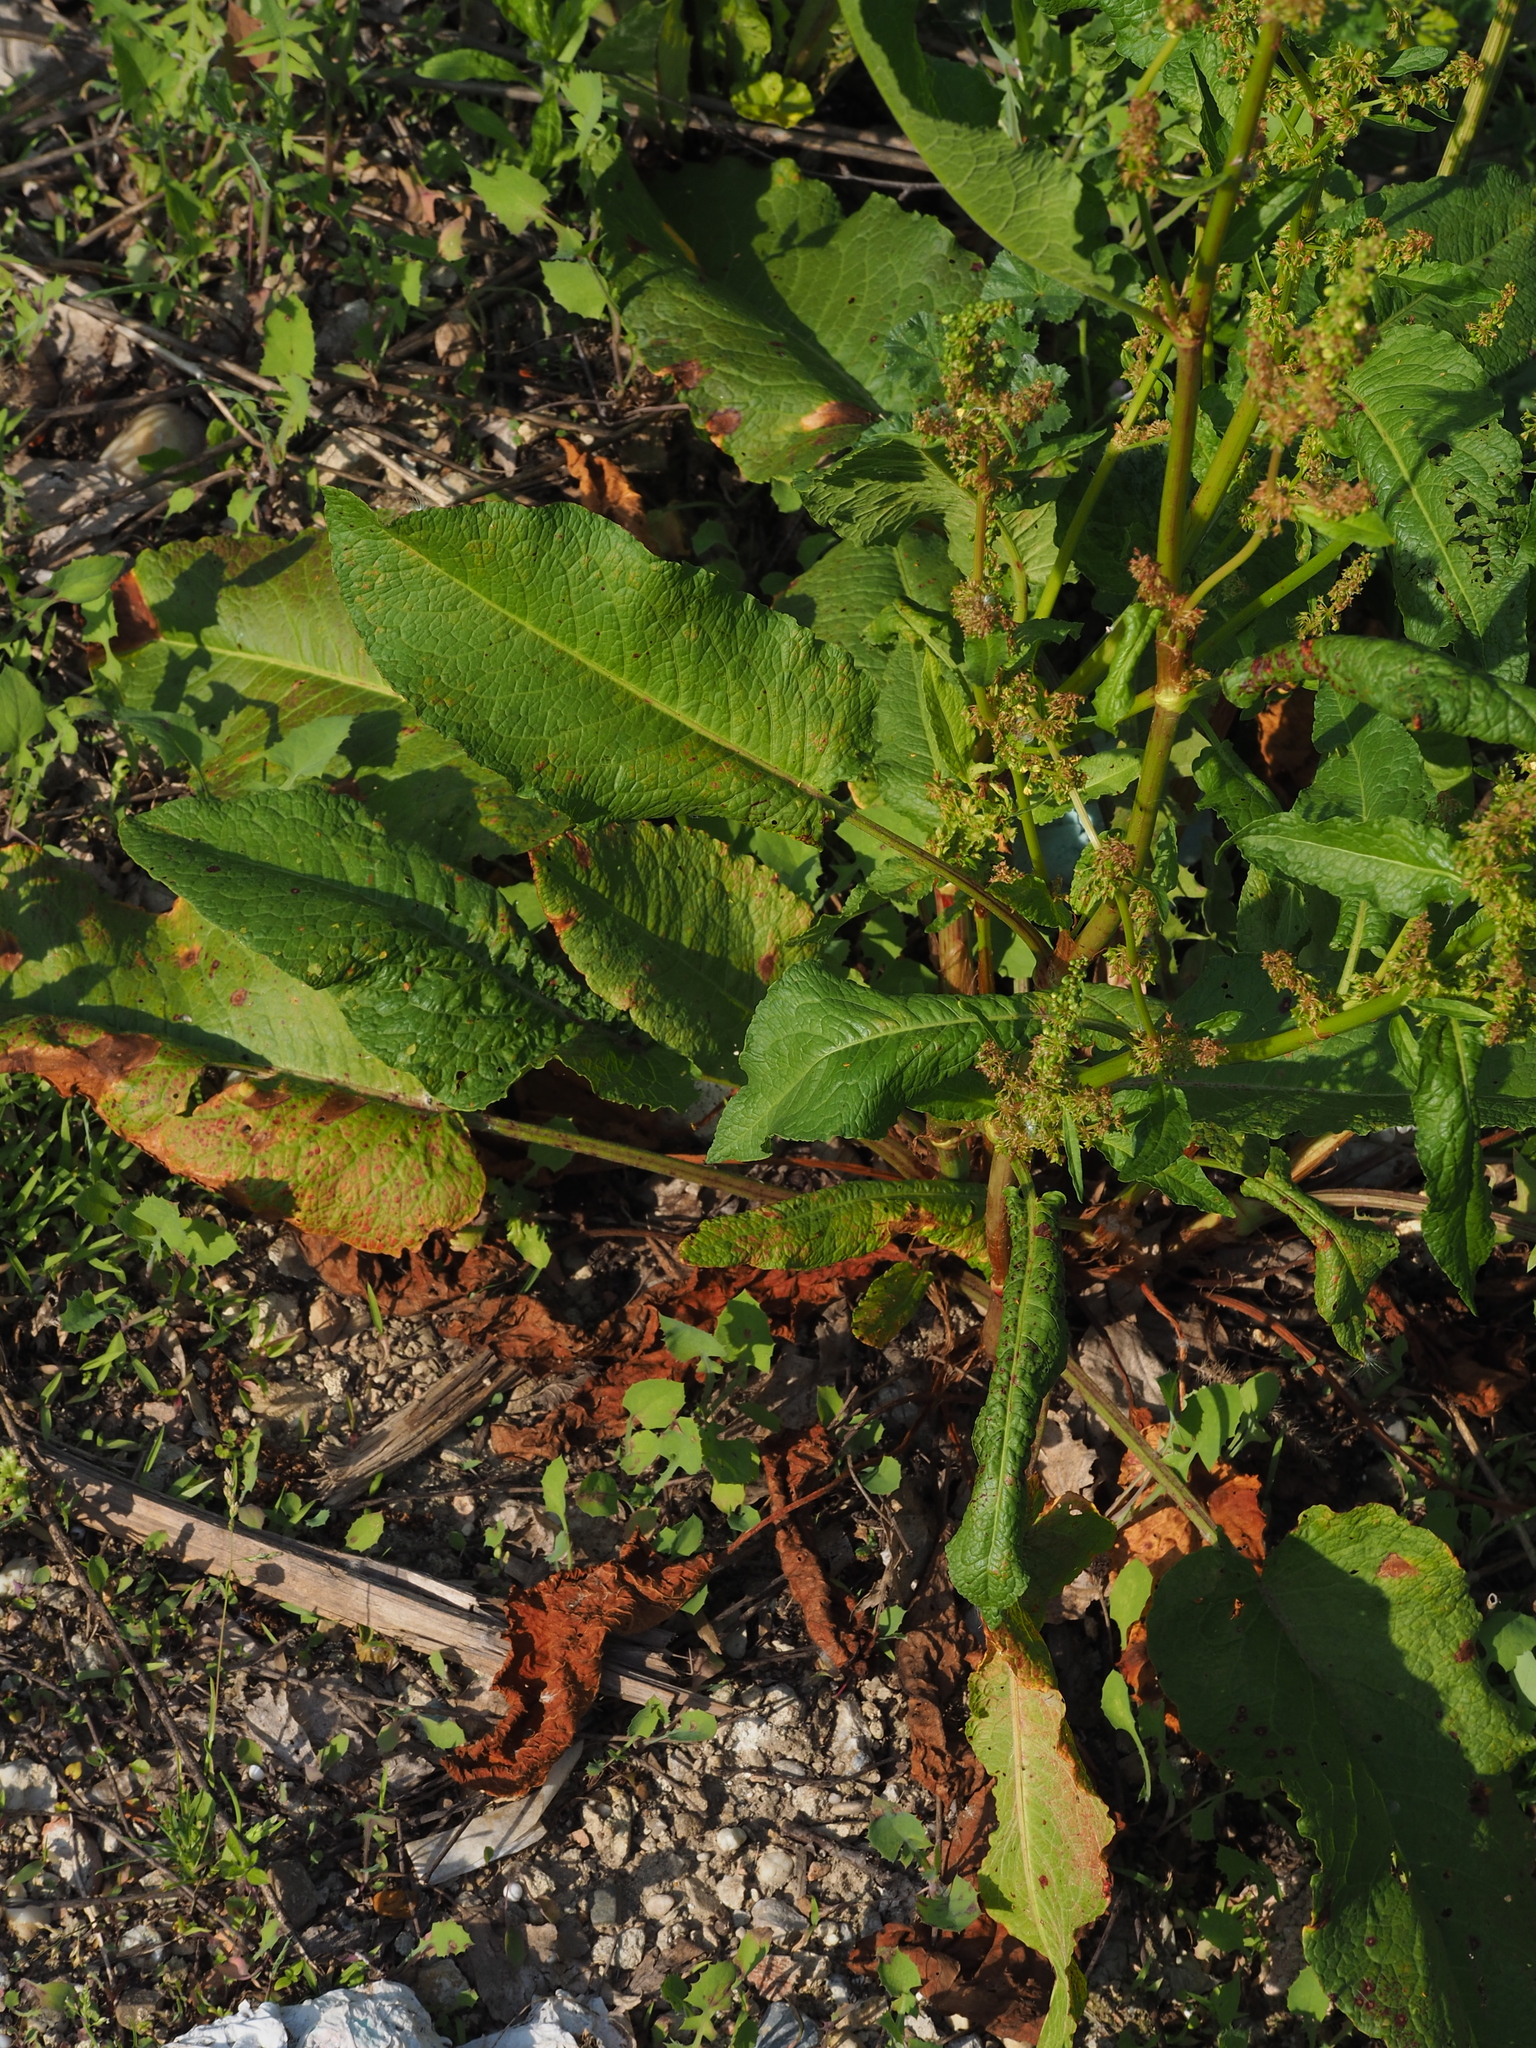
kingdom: Plantae
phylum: Tracheophyta
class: Magnoliopsida
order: Caryophyllales
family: Polygonaceae
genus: Rumex
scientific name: Rumex obtusifolius
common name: Bitter dock
